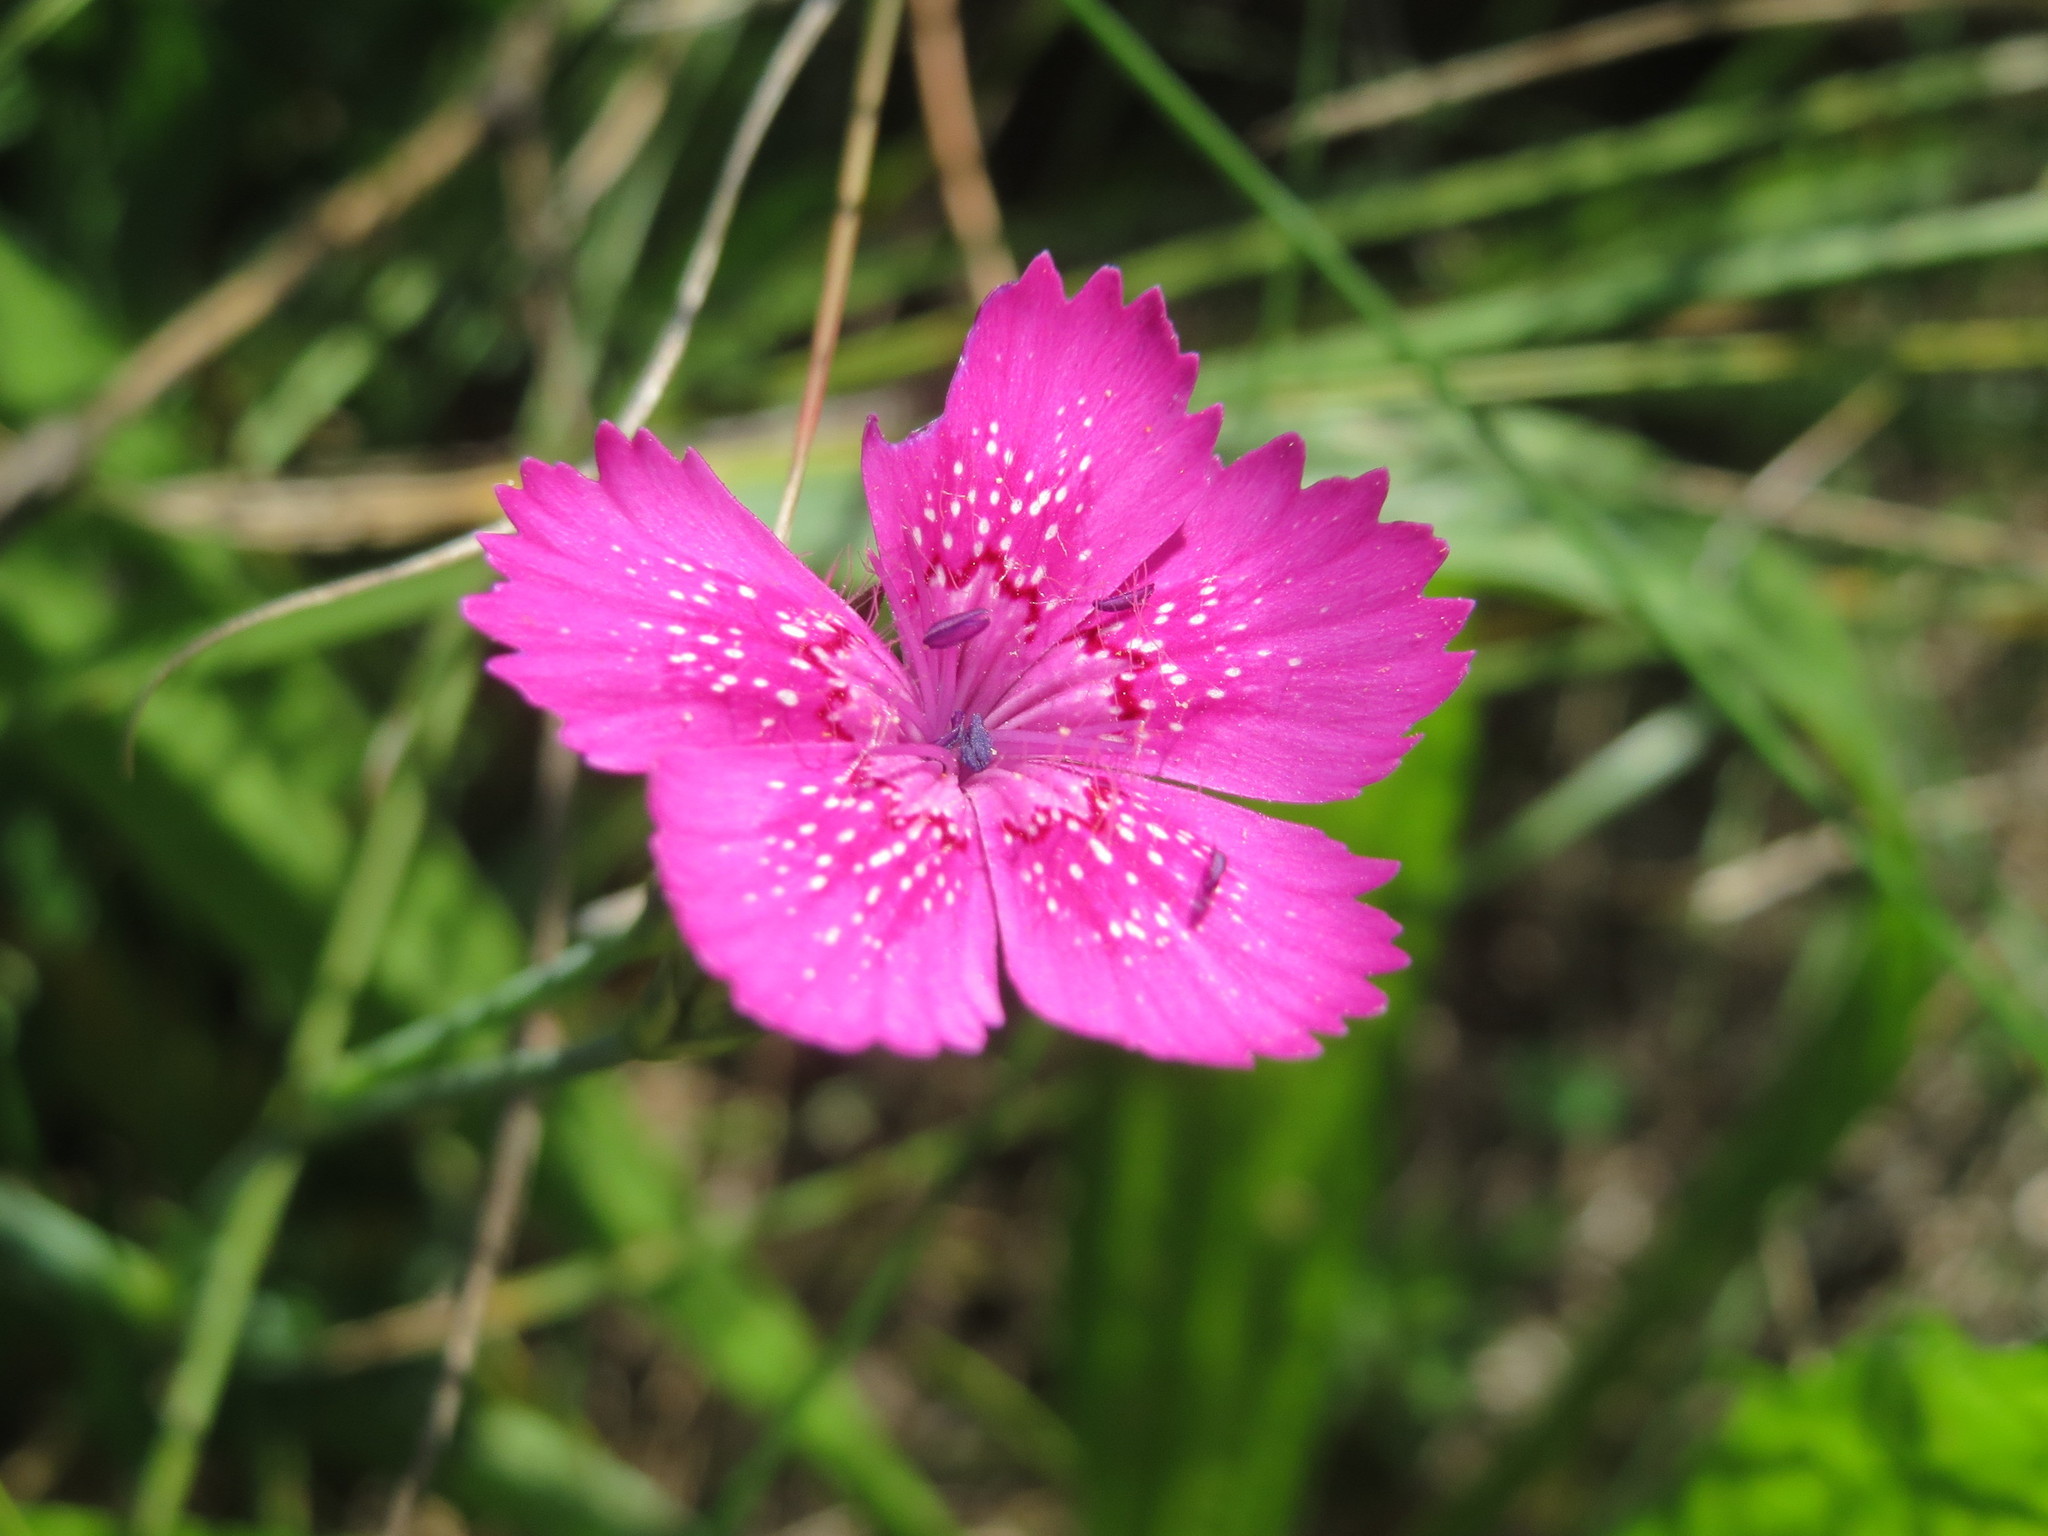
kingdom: Plantae
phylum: Tracheophyta
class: Magnoliopsida
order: Caryophyllales
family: Caryophyllaceae
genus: Dianthus
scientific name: Dianthus deltoides
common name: Maiden pink
